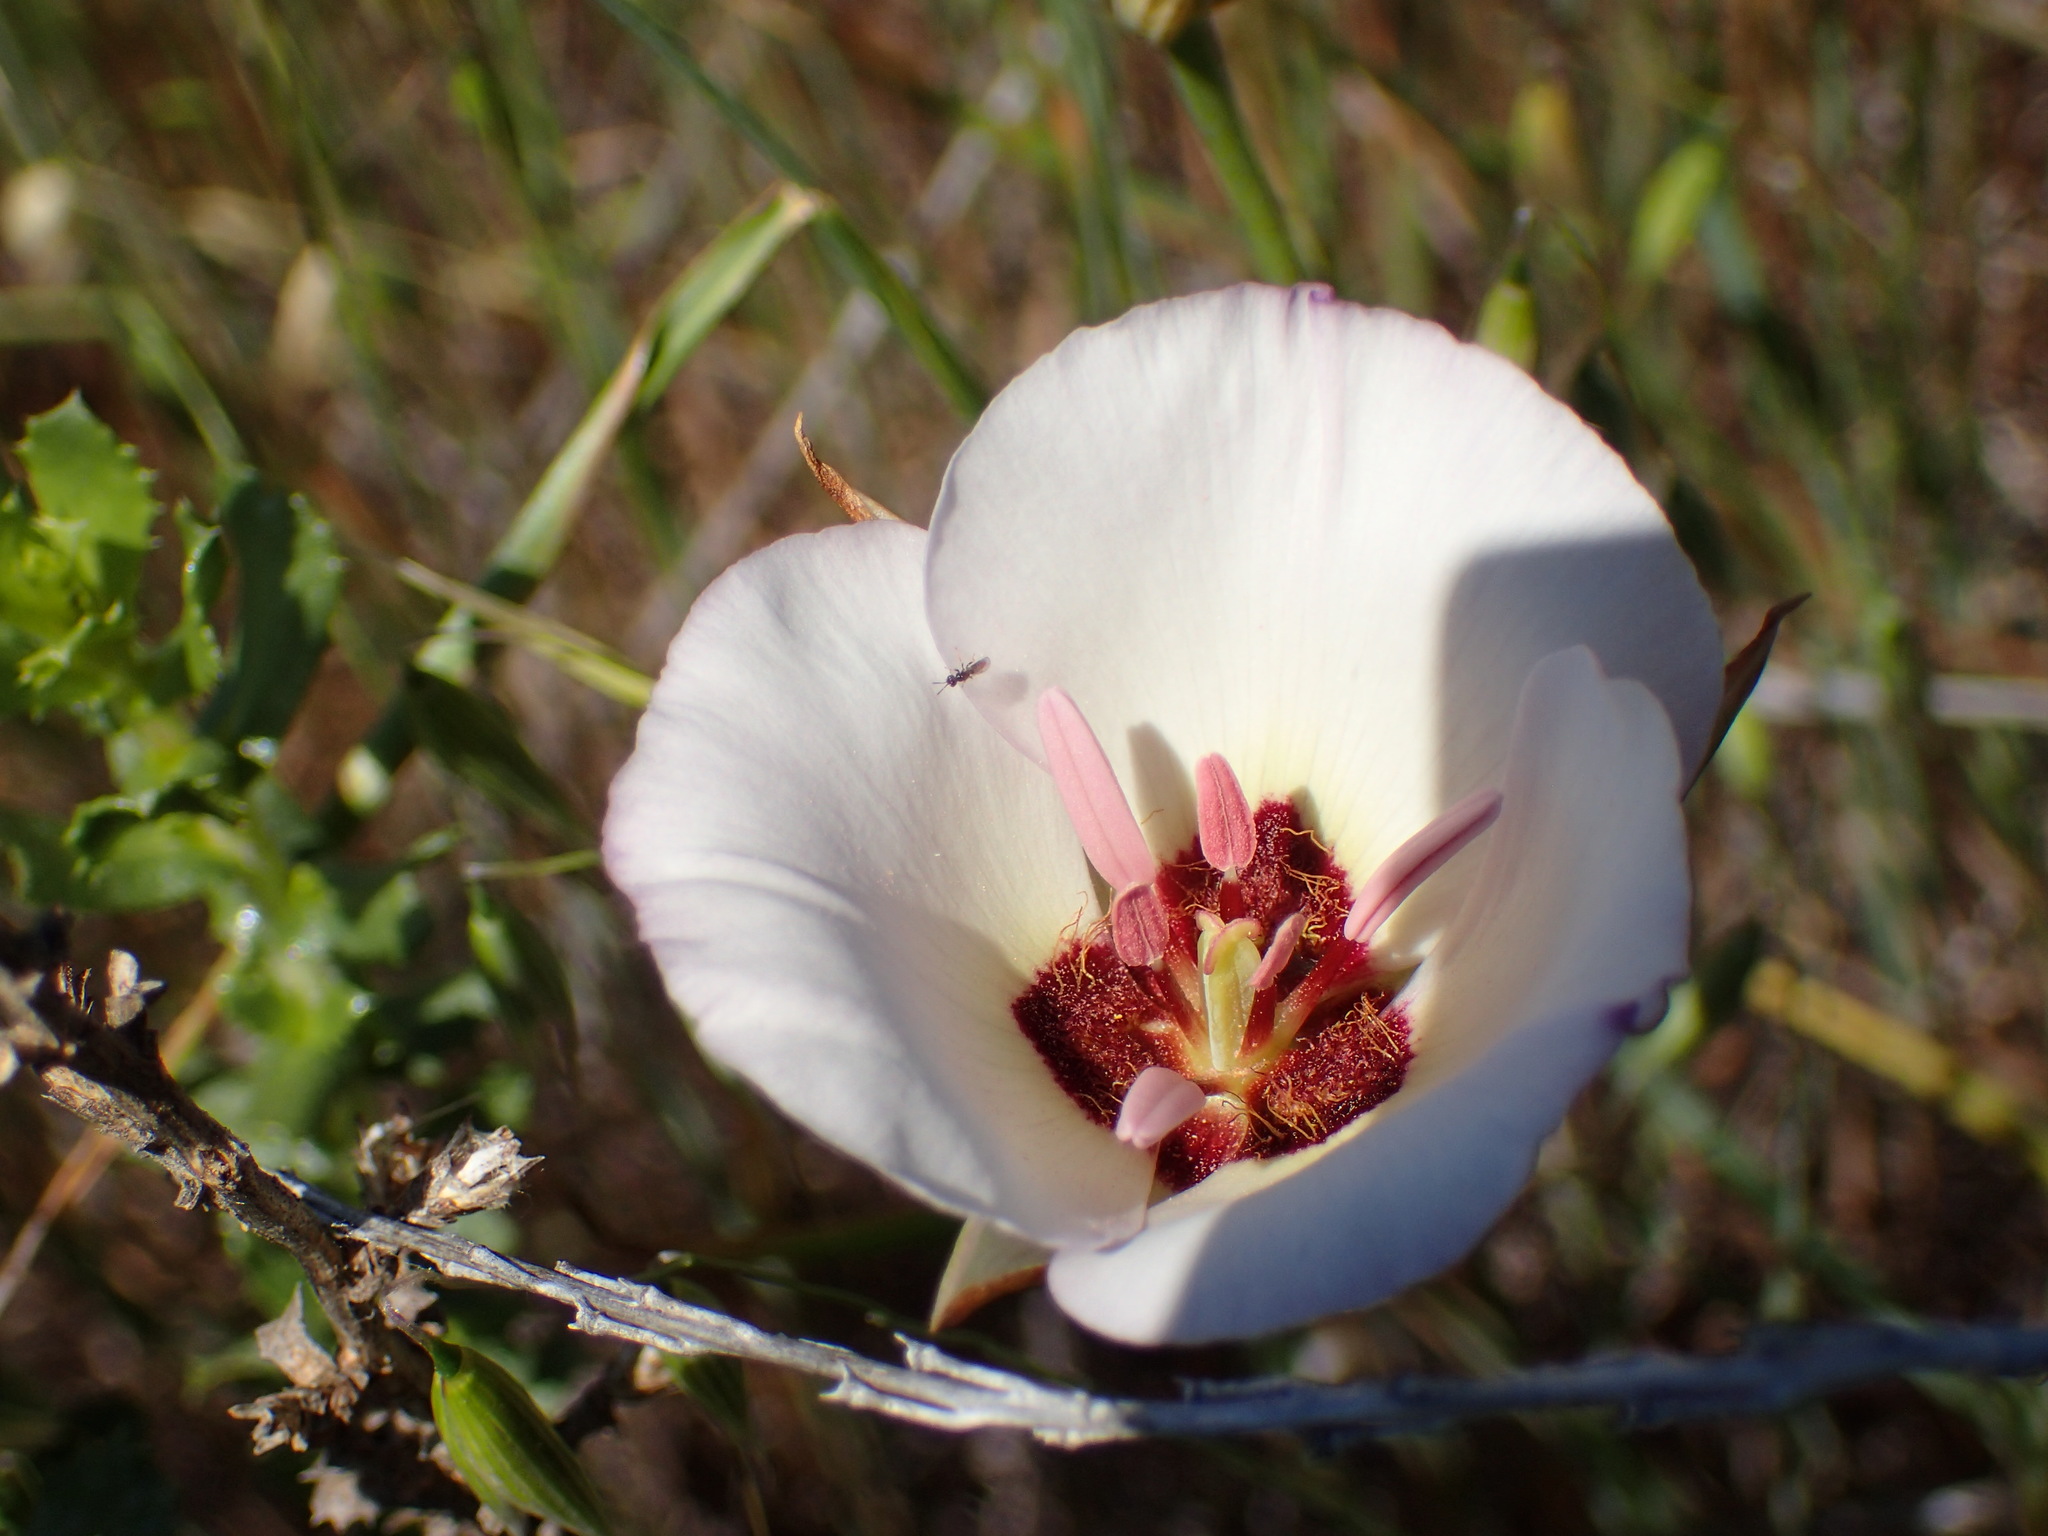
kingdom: Plantae
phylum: Tracheophyta
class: Liliopsida
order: Liliales
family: Liliaceae
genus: Calochortus
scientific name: Calochortus catalinae
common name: Catalina mariposa-lily
